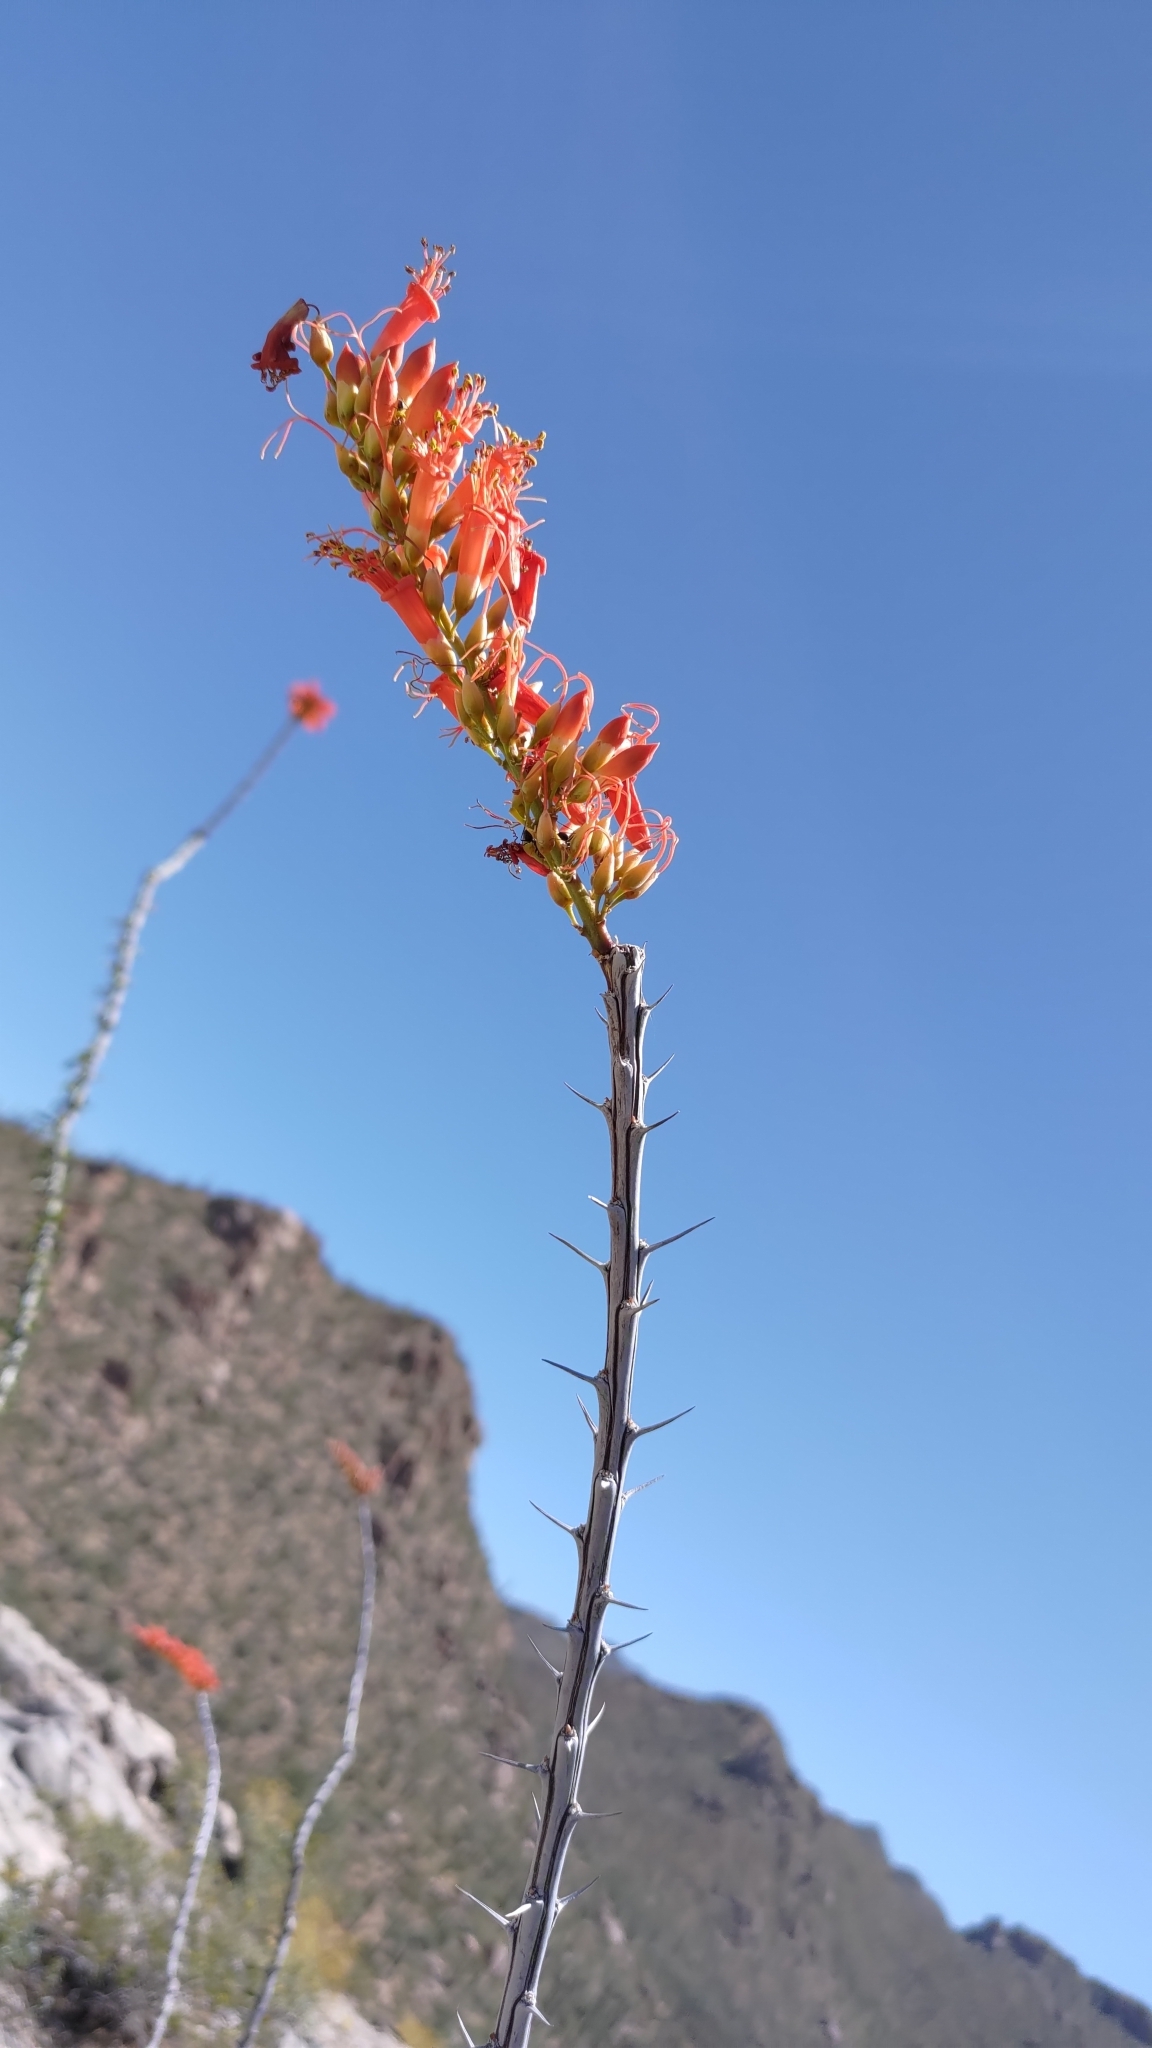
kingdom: Plantae
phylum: Tracheophyta
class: Magnoliopsida
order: Ericales
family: Fouquieriaceae
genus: Fouquieria
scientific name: Fouquieria splendens
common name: Vine-cactus
